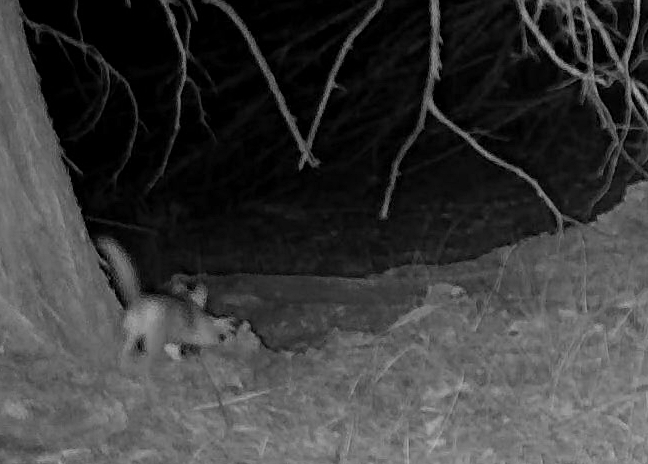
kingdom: Animalia
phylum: Chordata
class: Mammalia
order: Rodentia
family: Cricetidae
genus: Neotoma
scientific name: Neotoma cinerea
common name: Bushy-tailed woodrat
